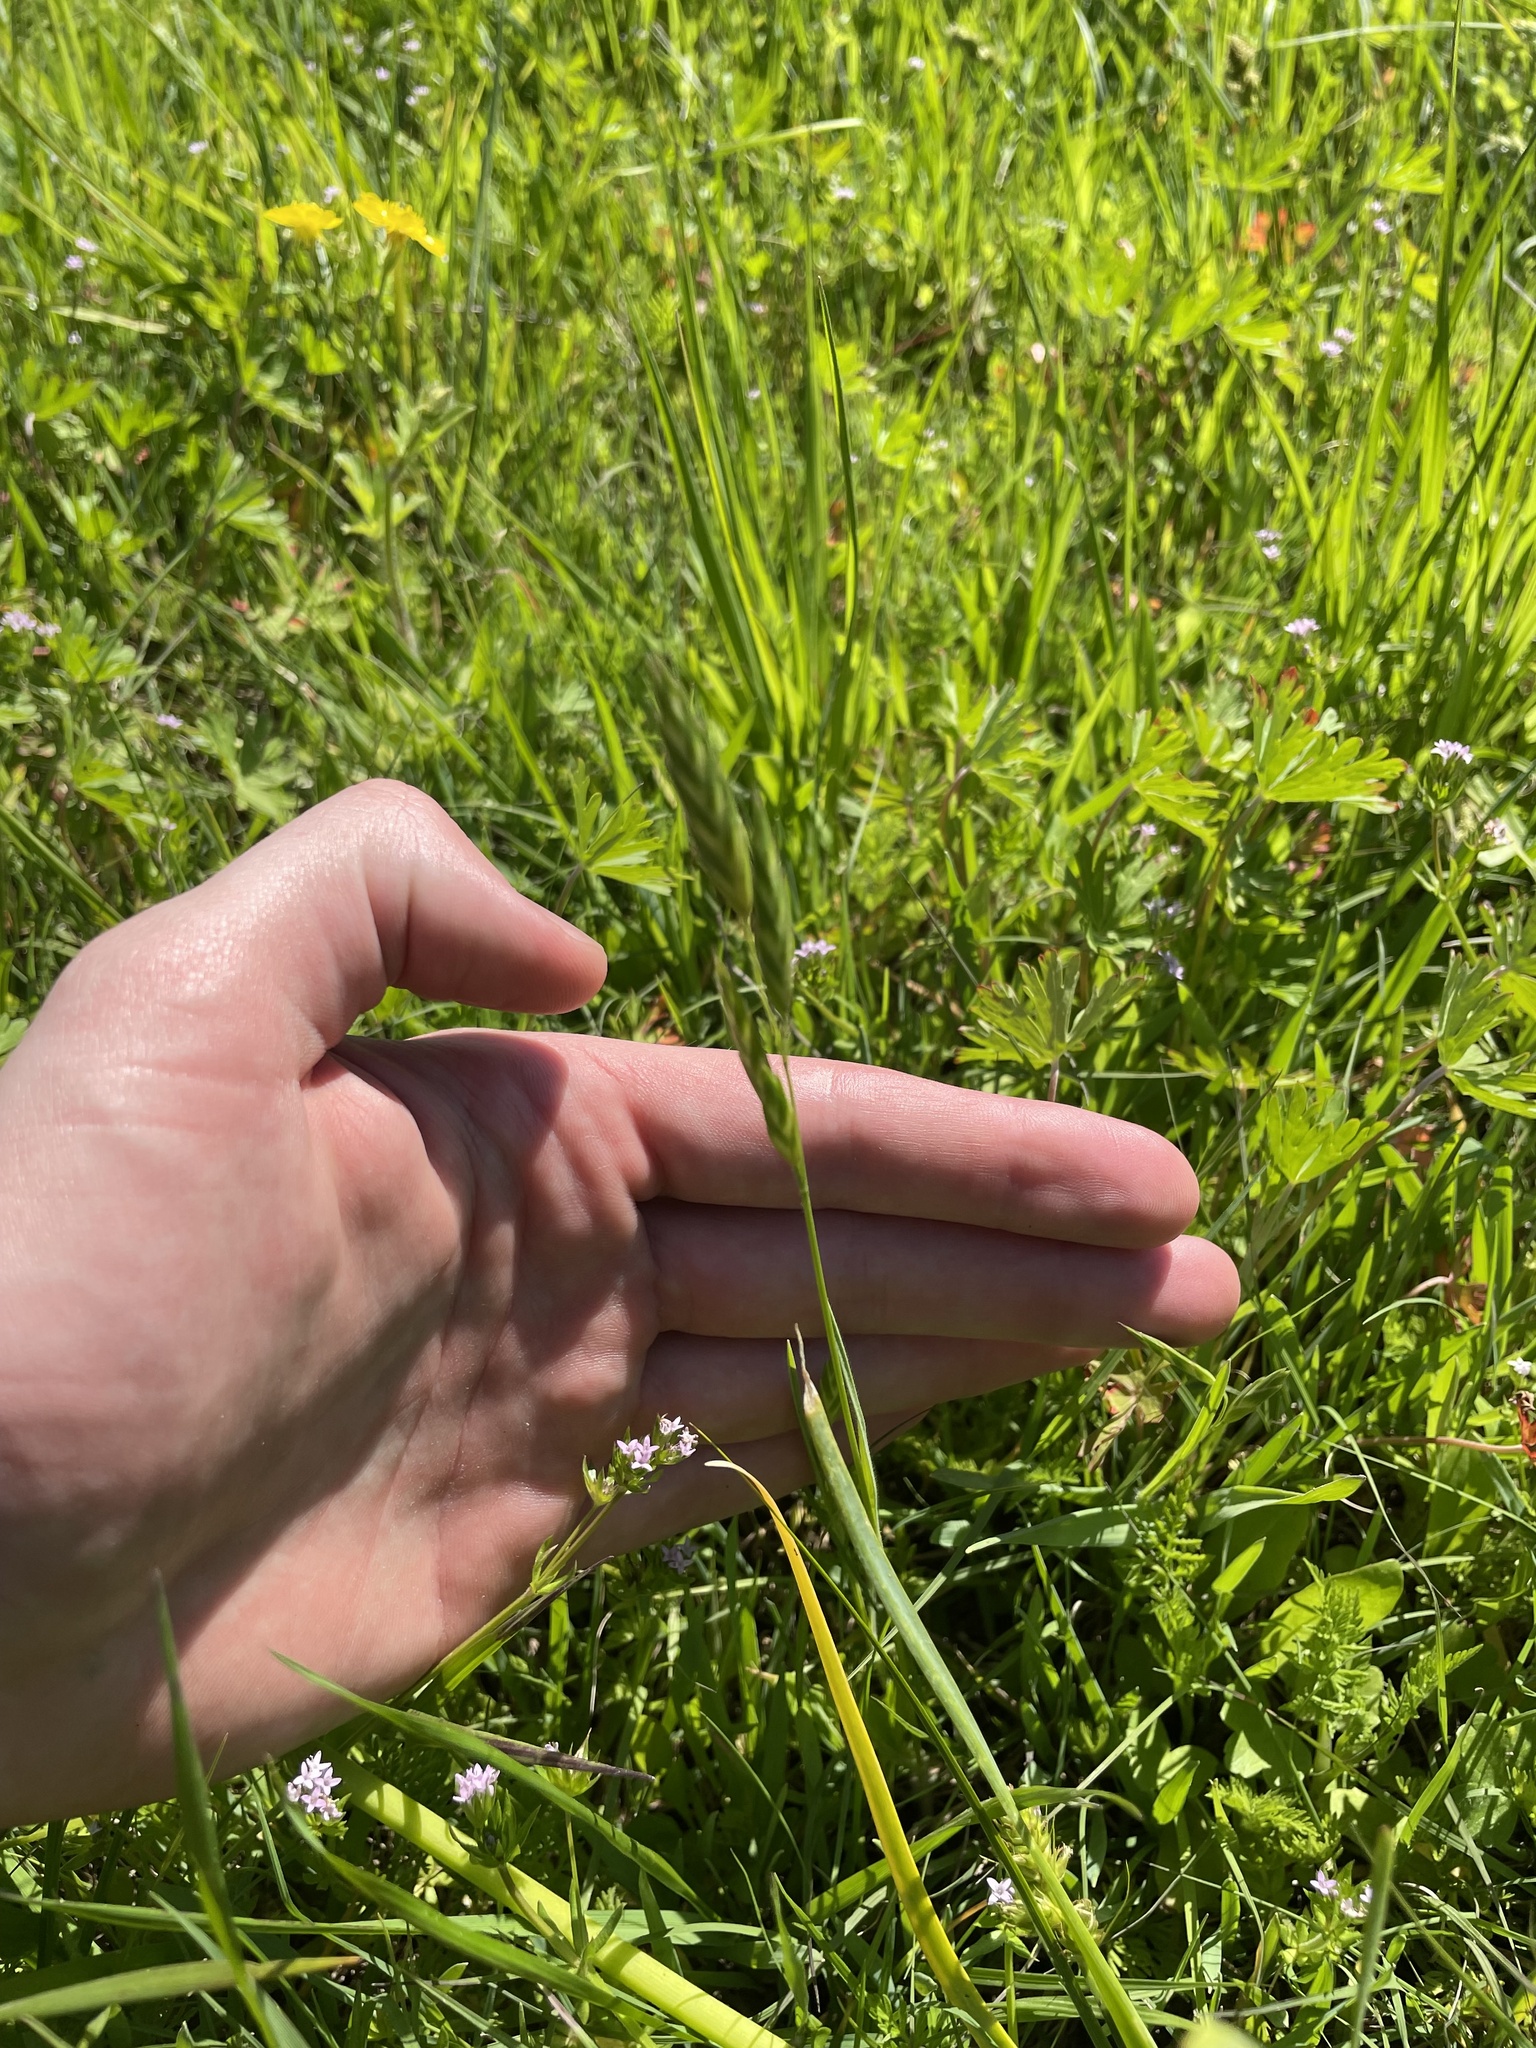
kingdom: Plantae
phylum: Tracheophyta
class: Liliopsida
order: Poales
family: Poaceae
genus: Bromus
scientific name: Bromus catharticus
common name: Rescuegrass
